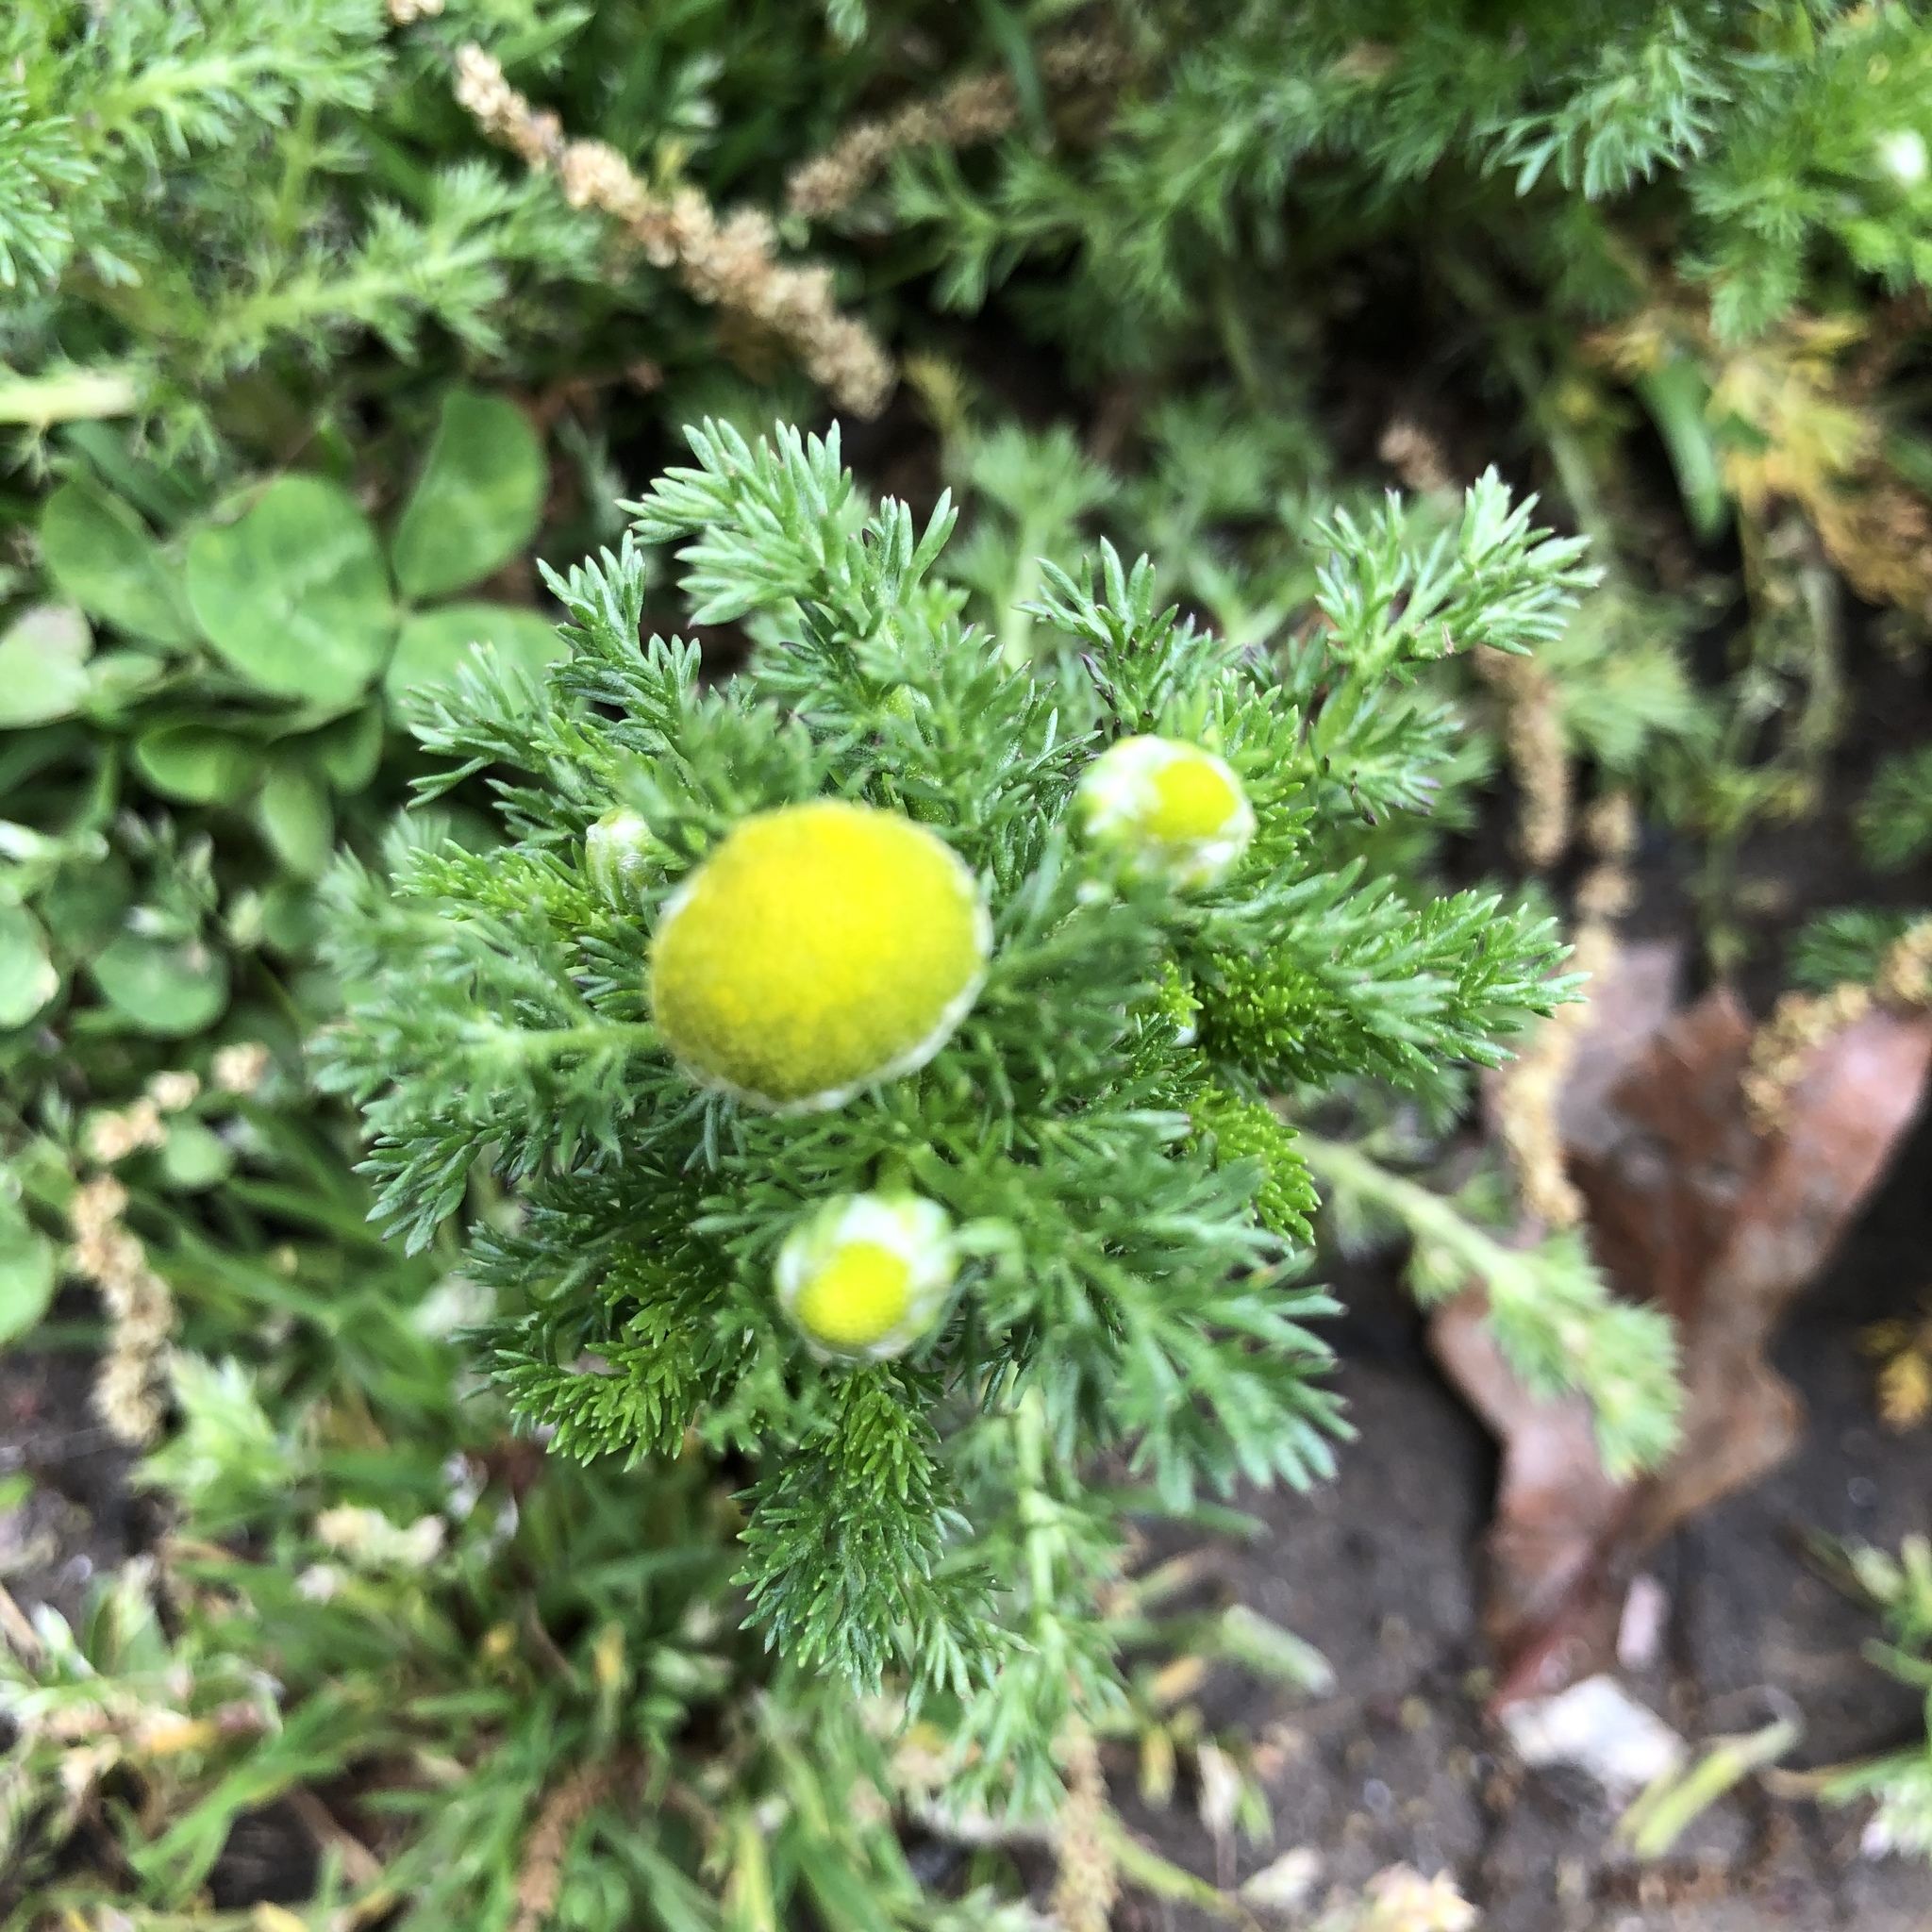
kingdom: Plantae
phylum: Tracheophyta
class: Magnoliopsida
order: Asterales
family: Asteraceae
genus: Matricaria
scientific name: Matricaria discoidea
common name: Disc mayweed
